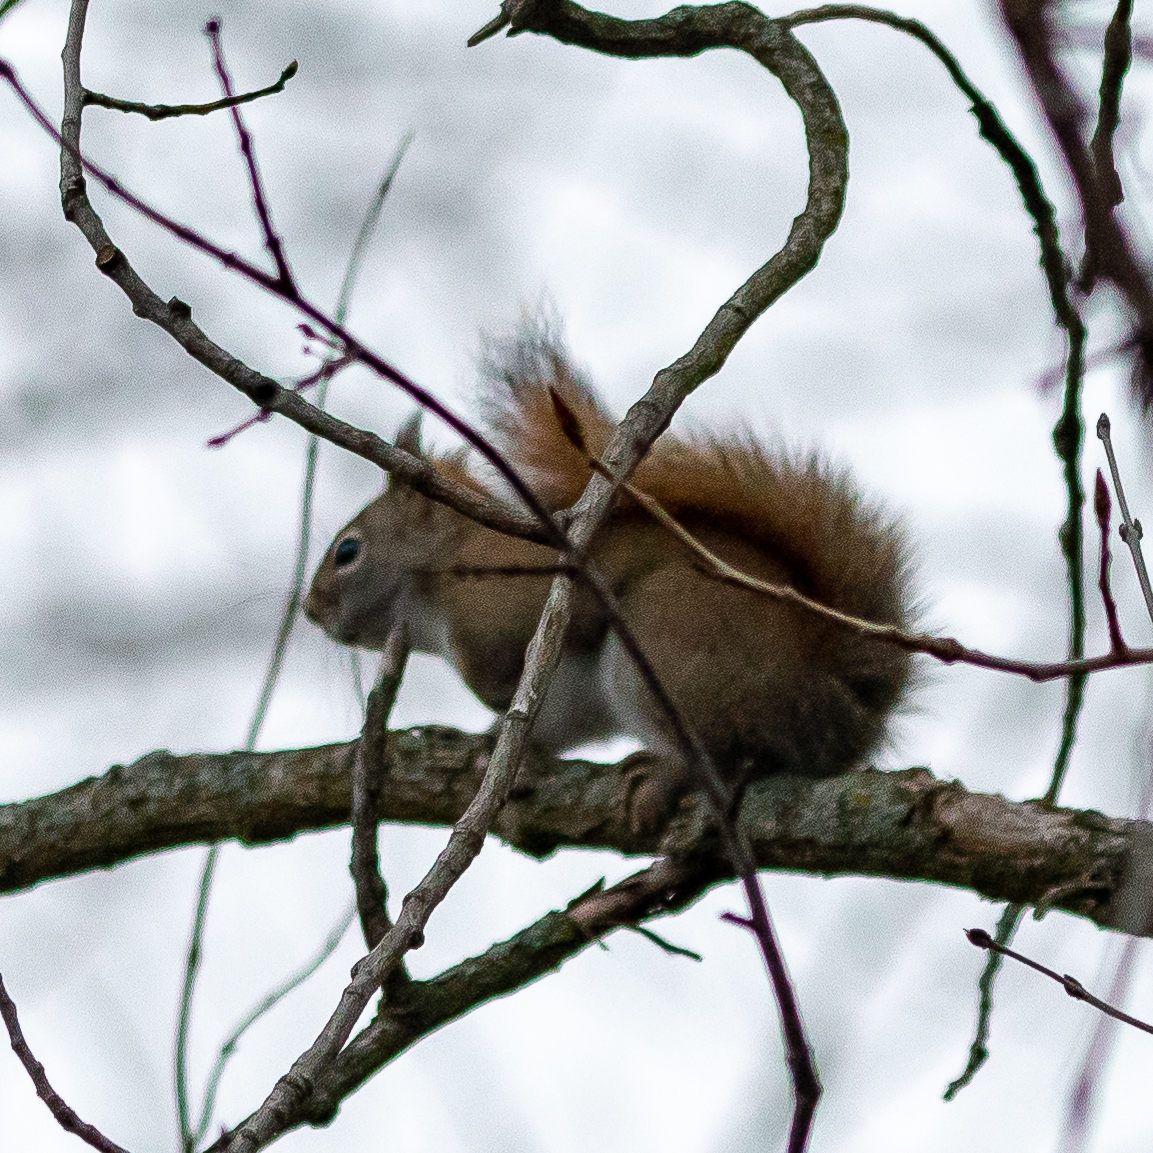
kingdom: Animalia
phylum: Chordata
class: Mammalia
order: Rodentia
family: Sciuridae
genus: Tamiasciurus
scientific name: Tamiasciurus hudsonicus
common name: Red squirrel
